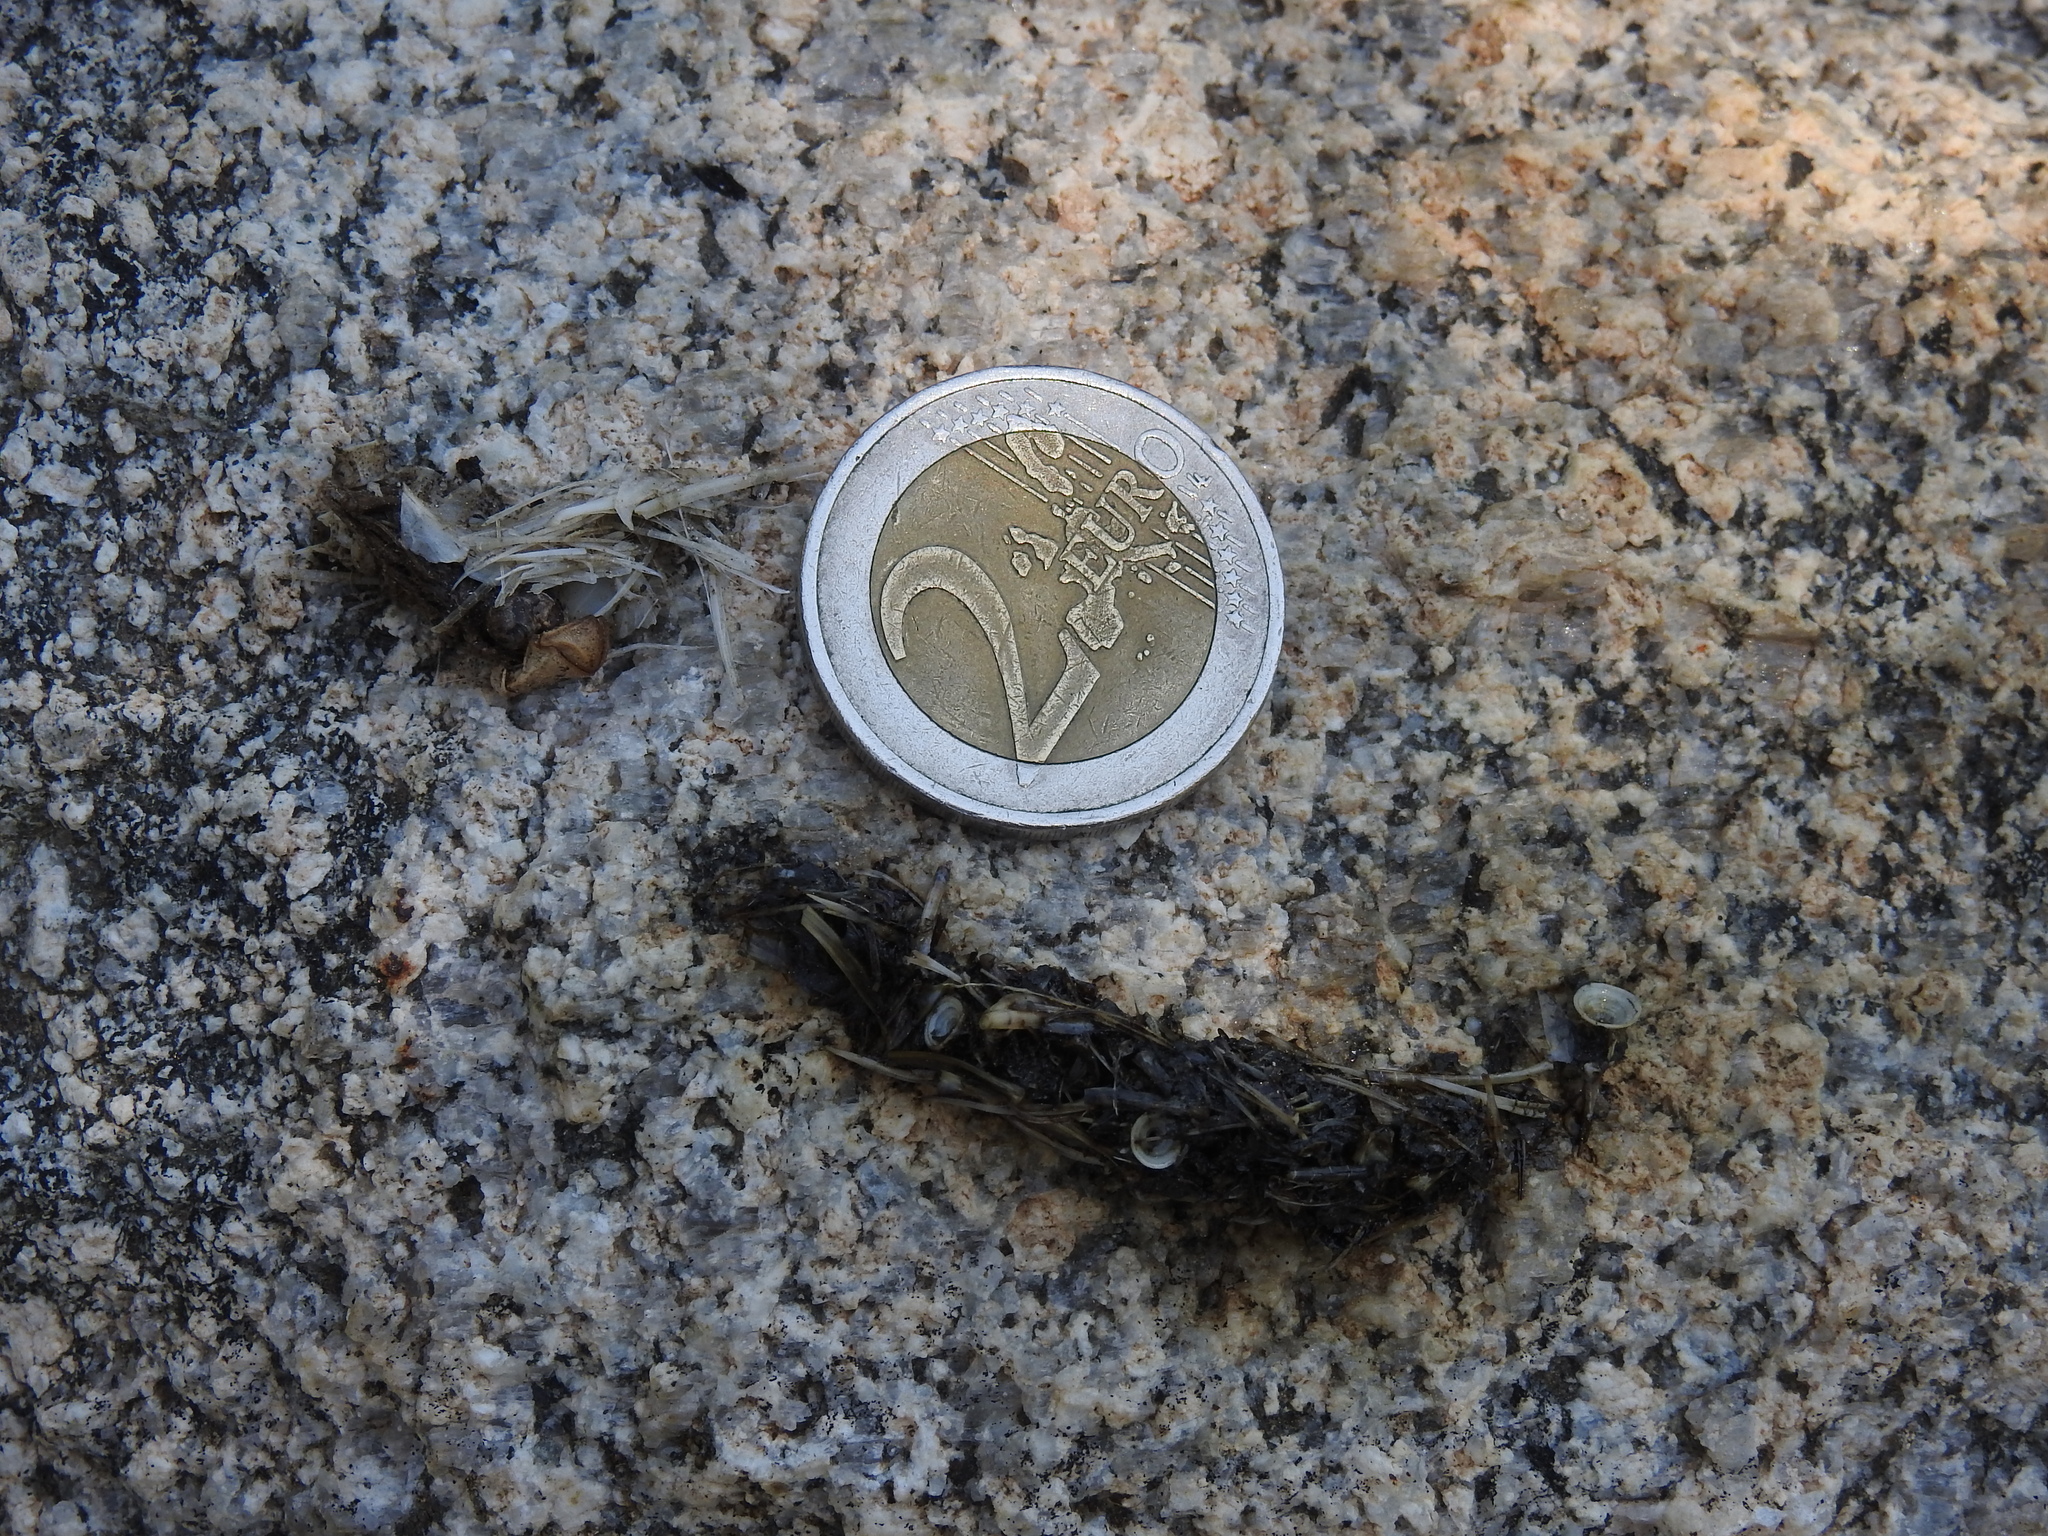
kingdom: Animalia
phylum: Chordata
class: Mammalia
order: Carnivora
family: Mustelidae
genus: Lutra
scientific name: Lutra lutra
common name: European otter
